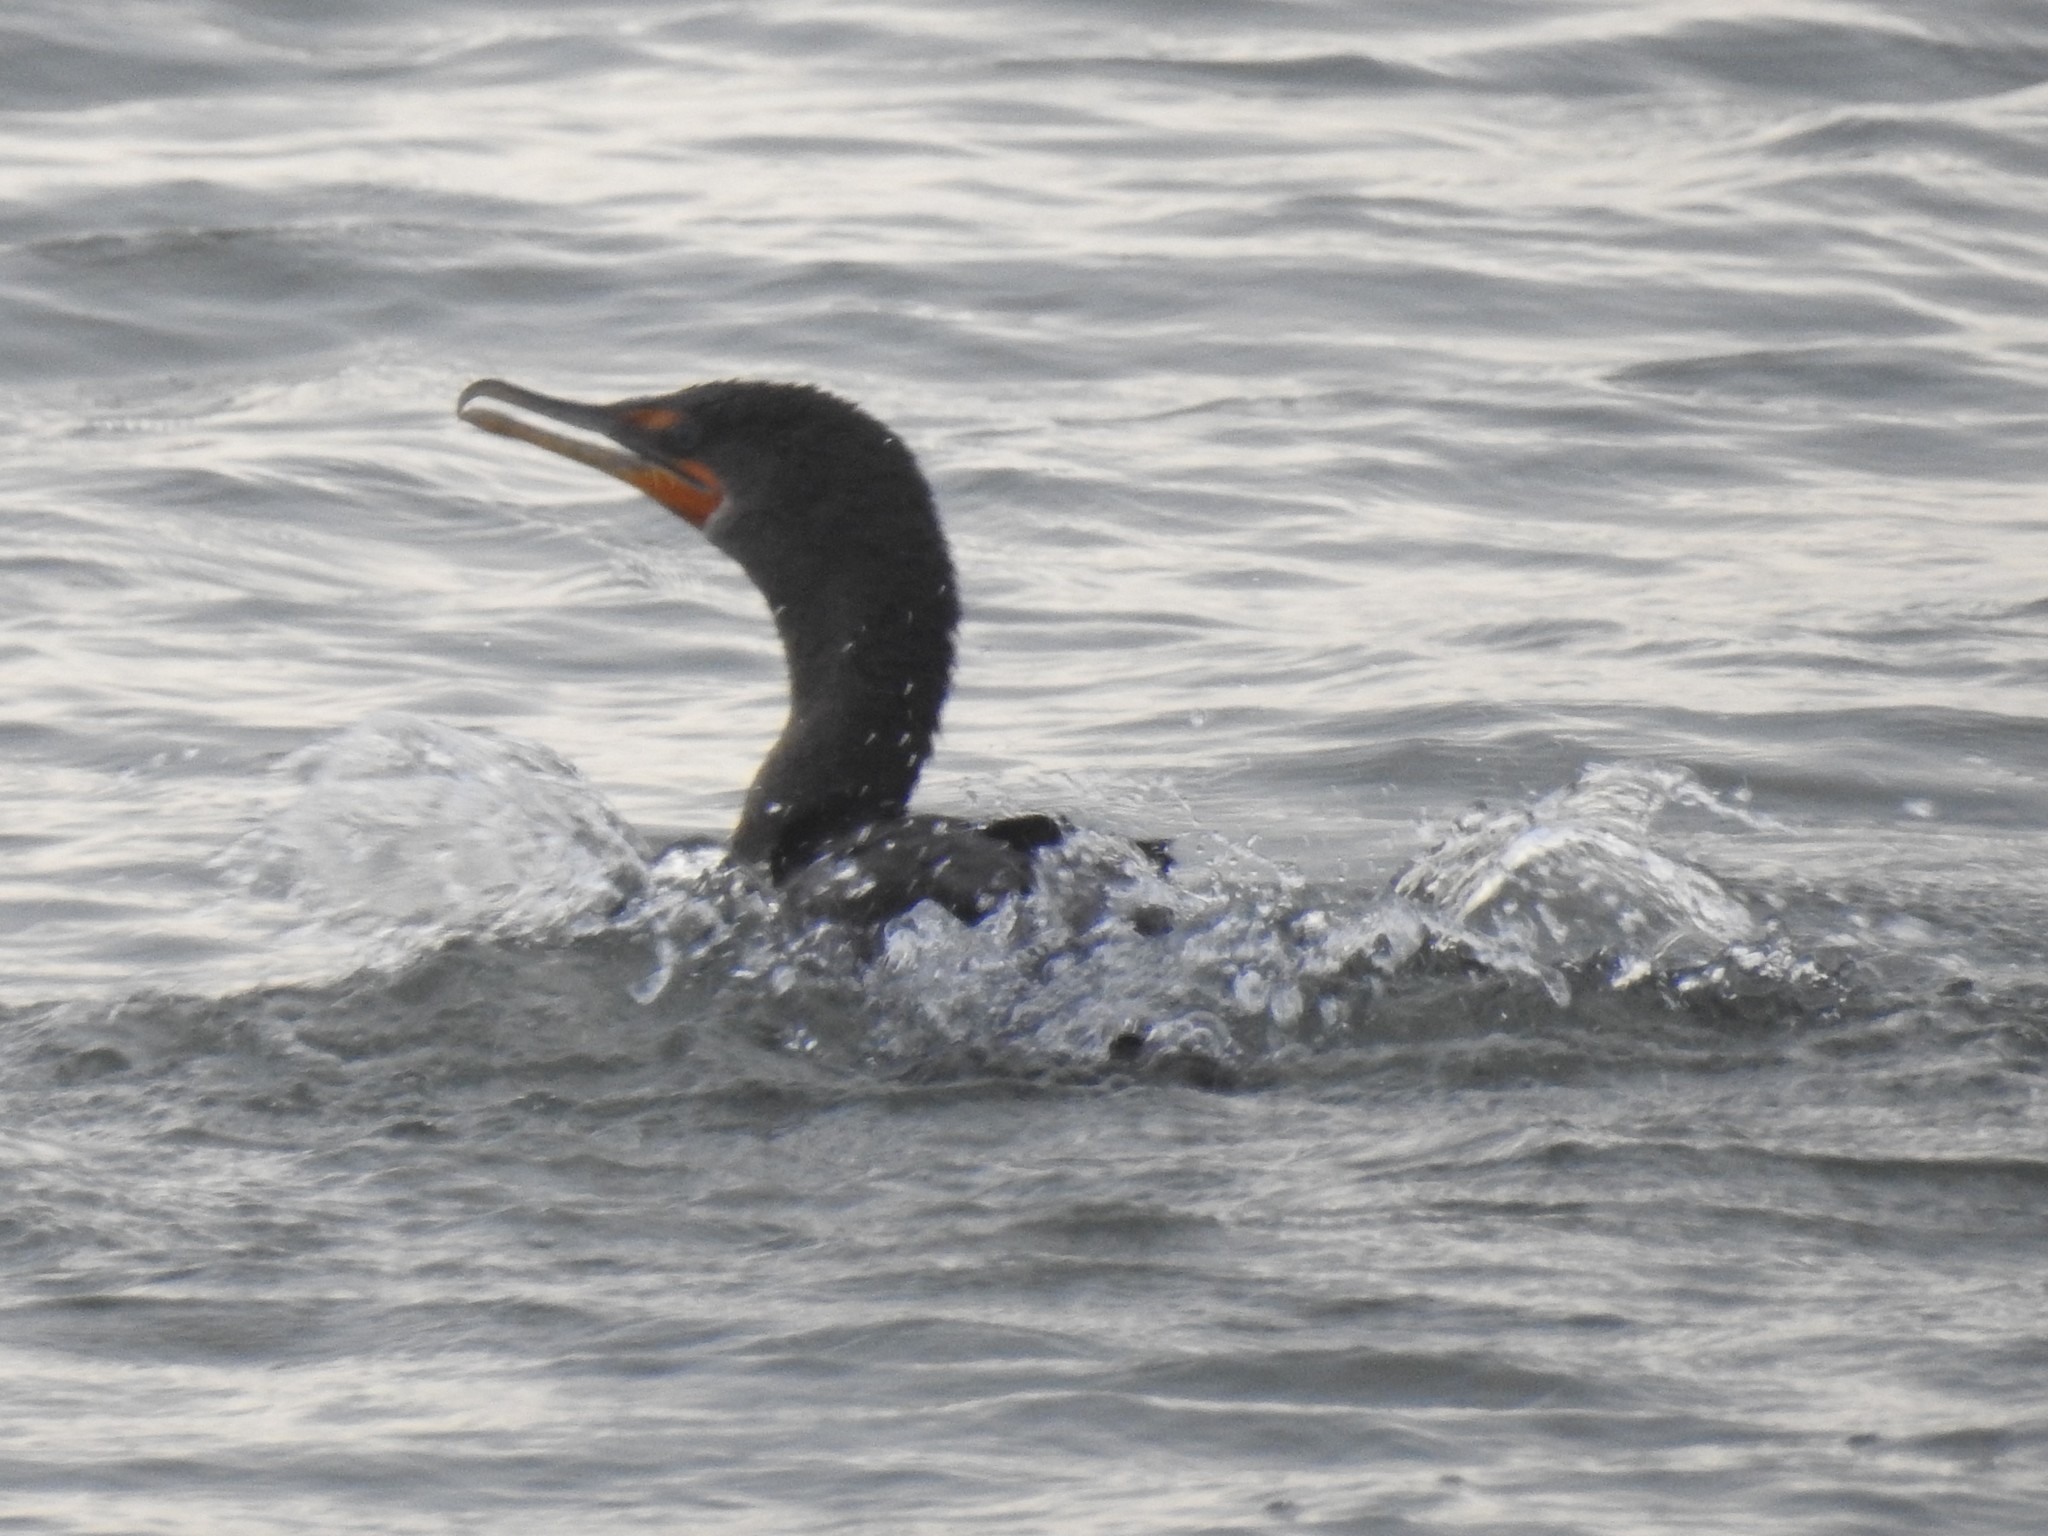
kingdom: Animalia
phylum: Chordata
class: Aves
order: Suliformes
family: Phalacrocoracidae
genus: Phalacrocorax
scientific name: Phalacrocorax auritus
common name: Double-crested cormorant
